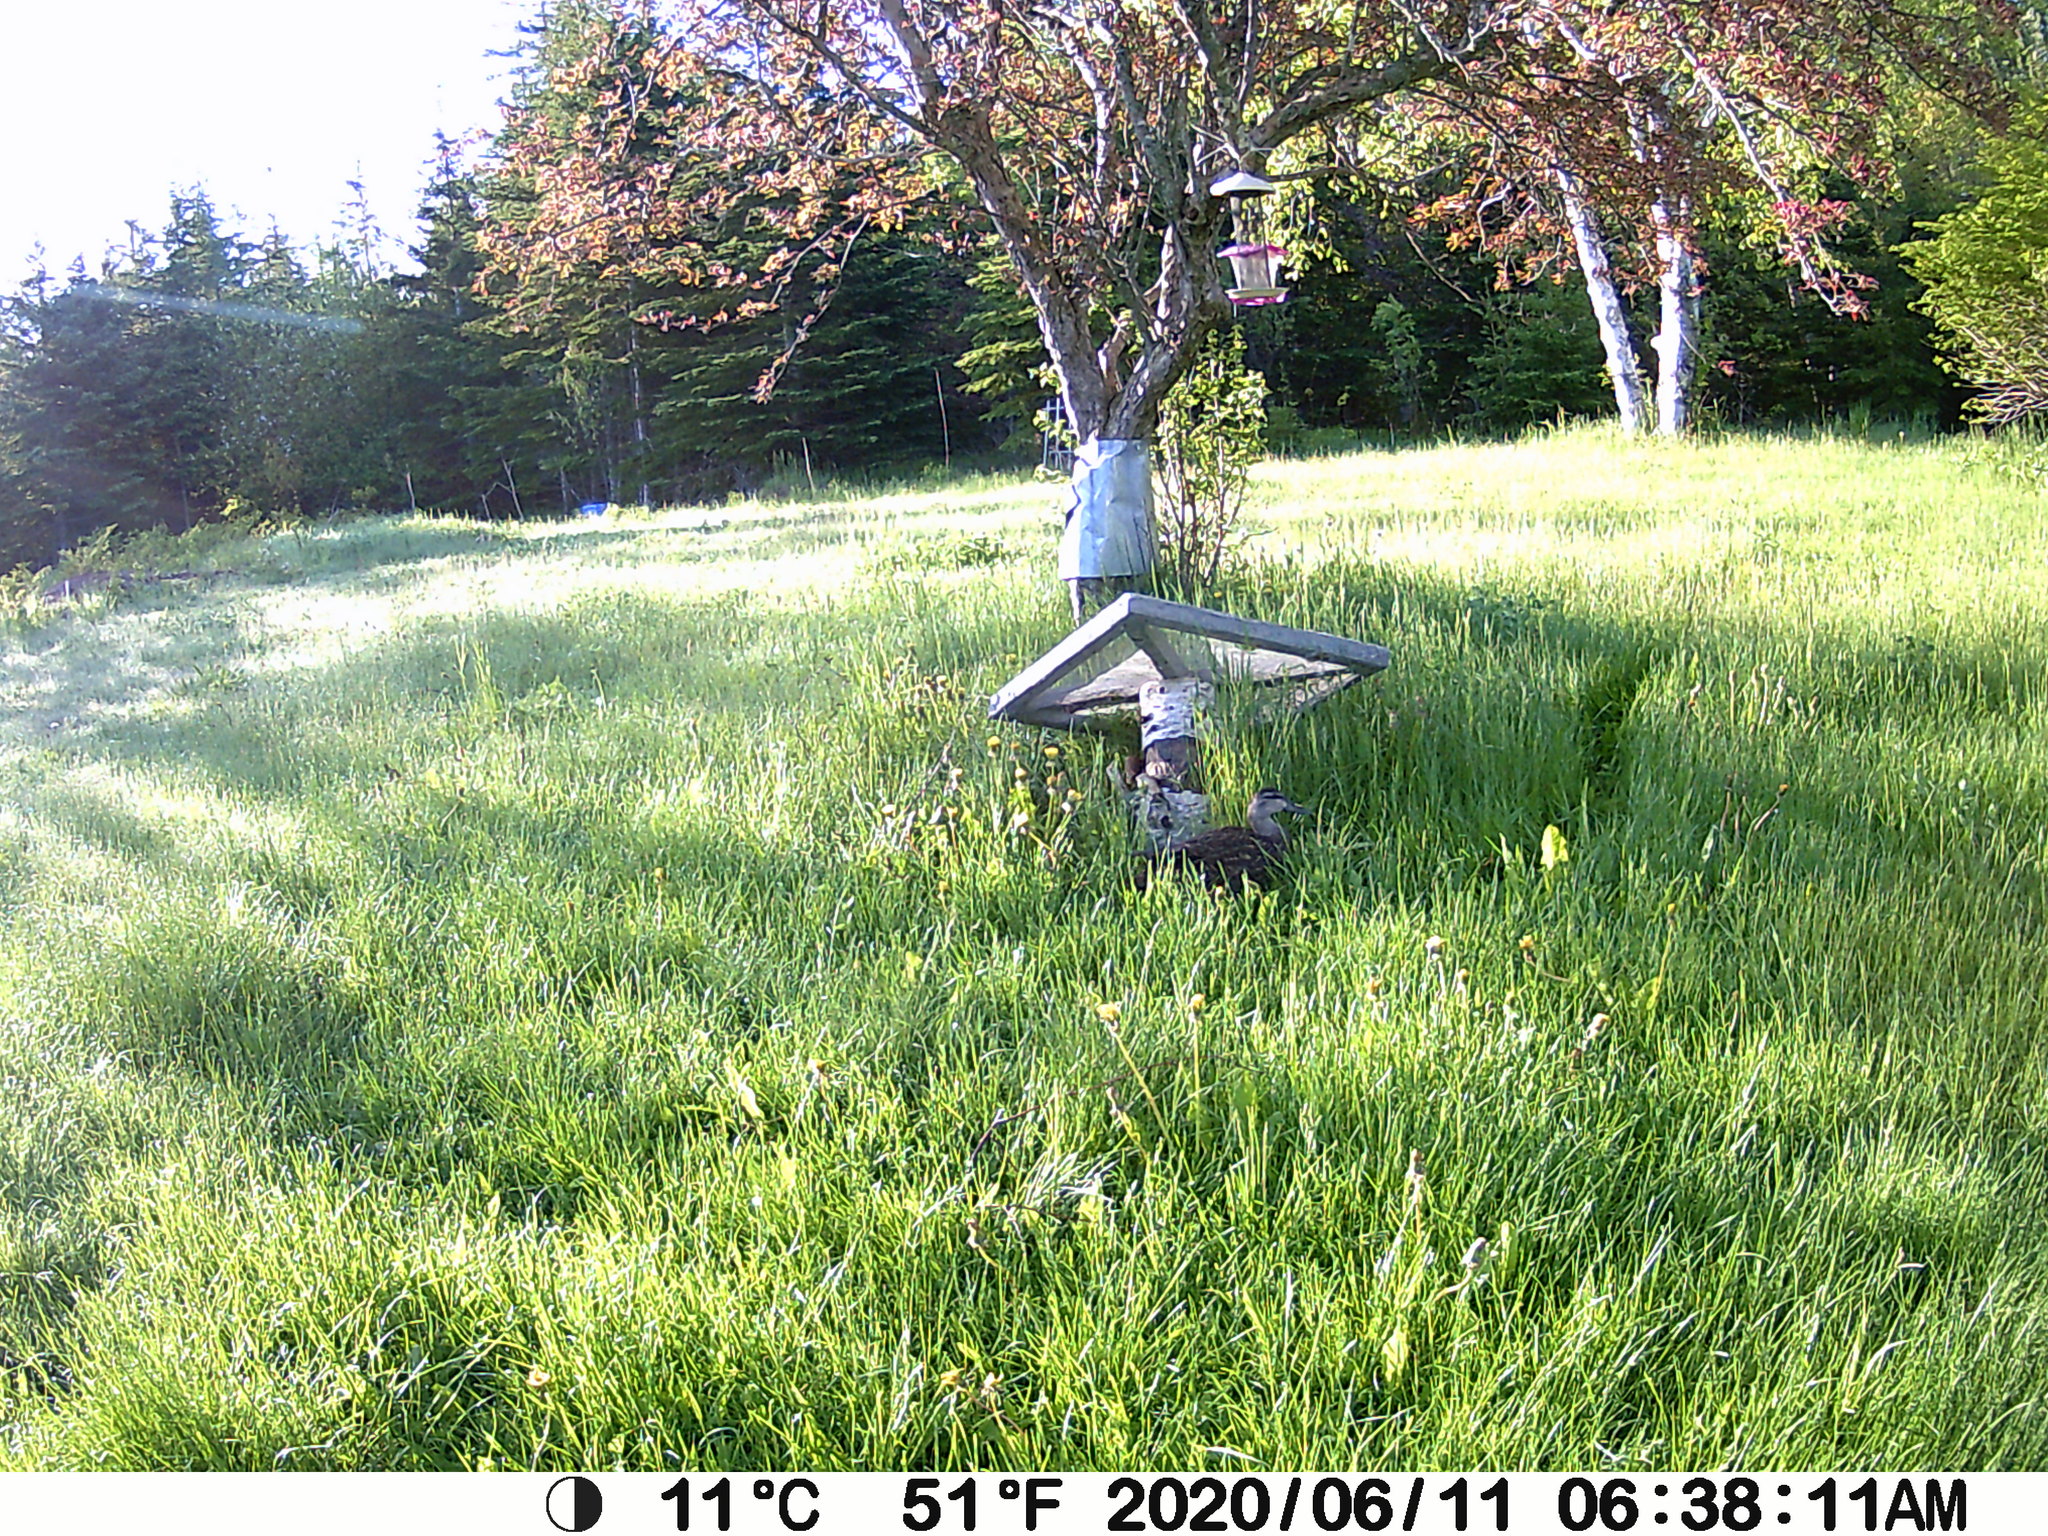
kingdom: Animalia
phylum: Chordata
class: Aves
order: Anseriformes
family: Anatidae
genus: Anas
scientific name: Anas rubripes
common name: American black duck
